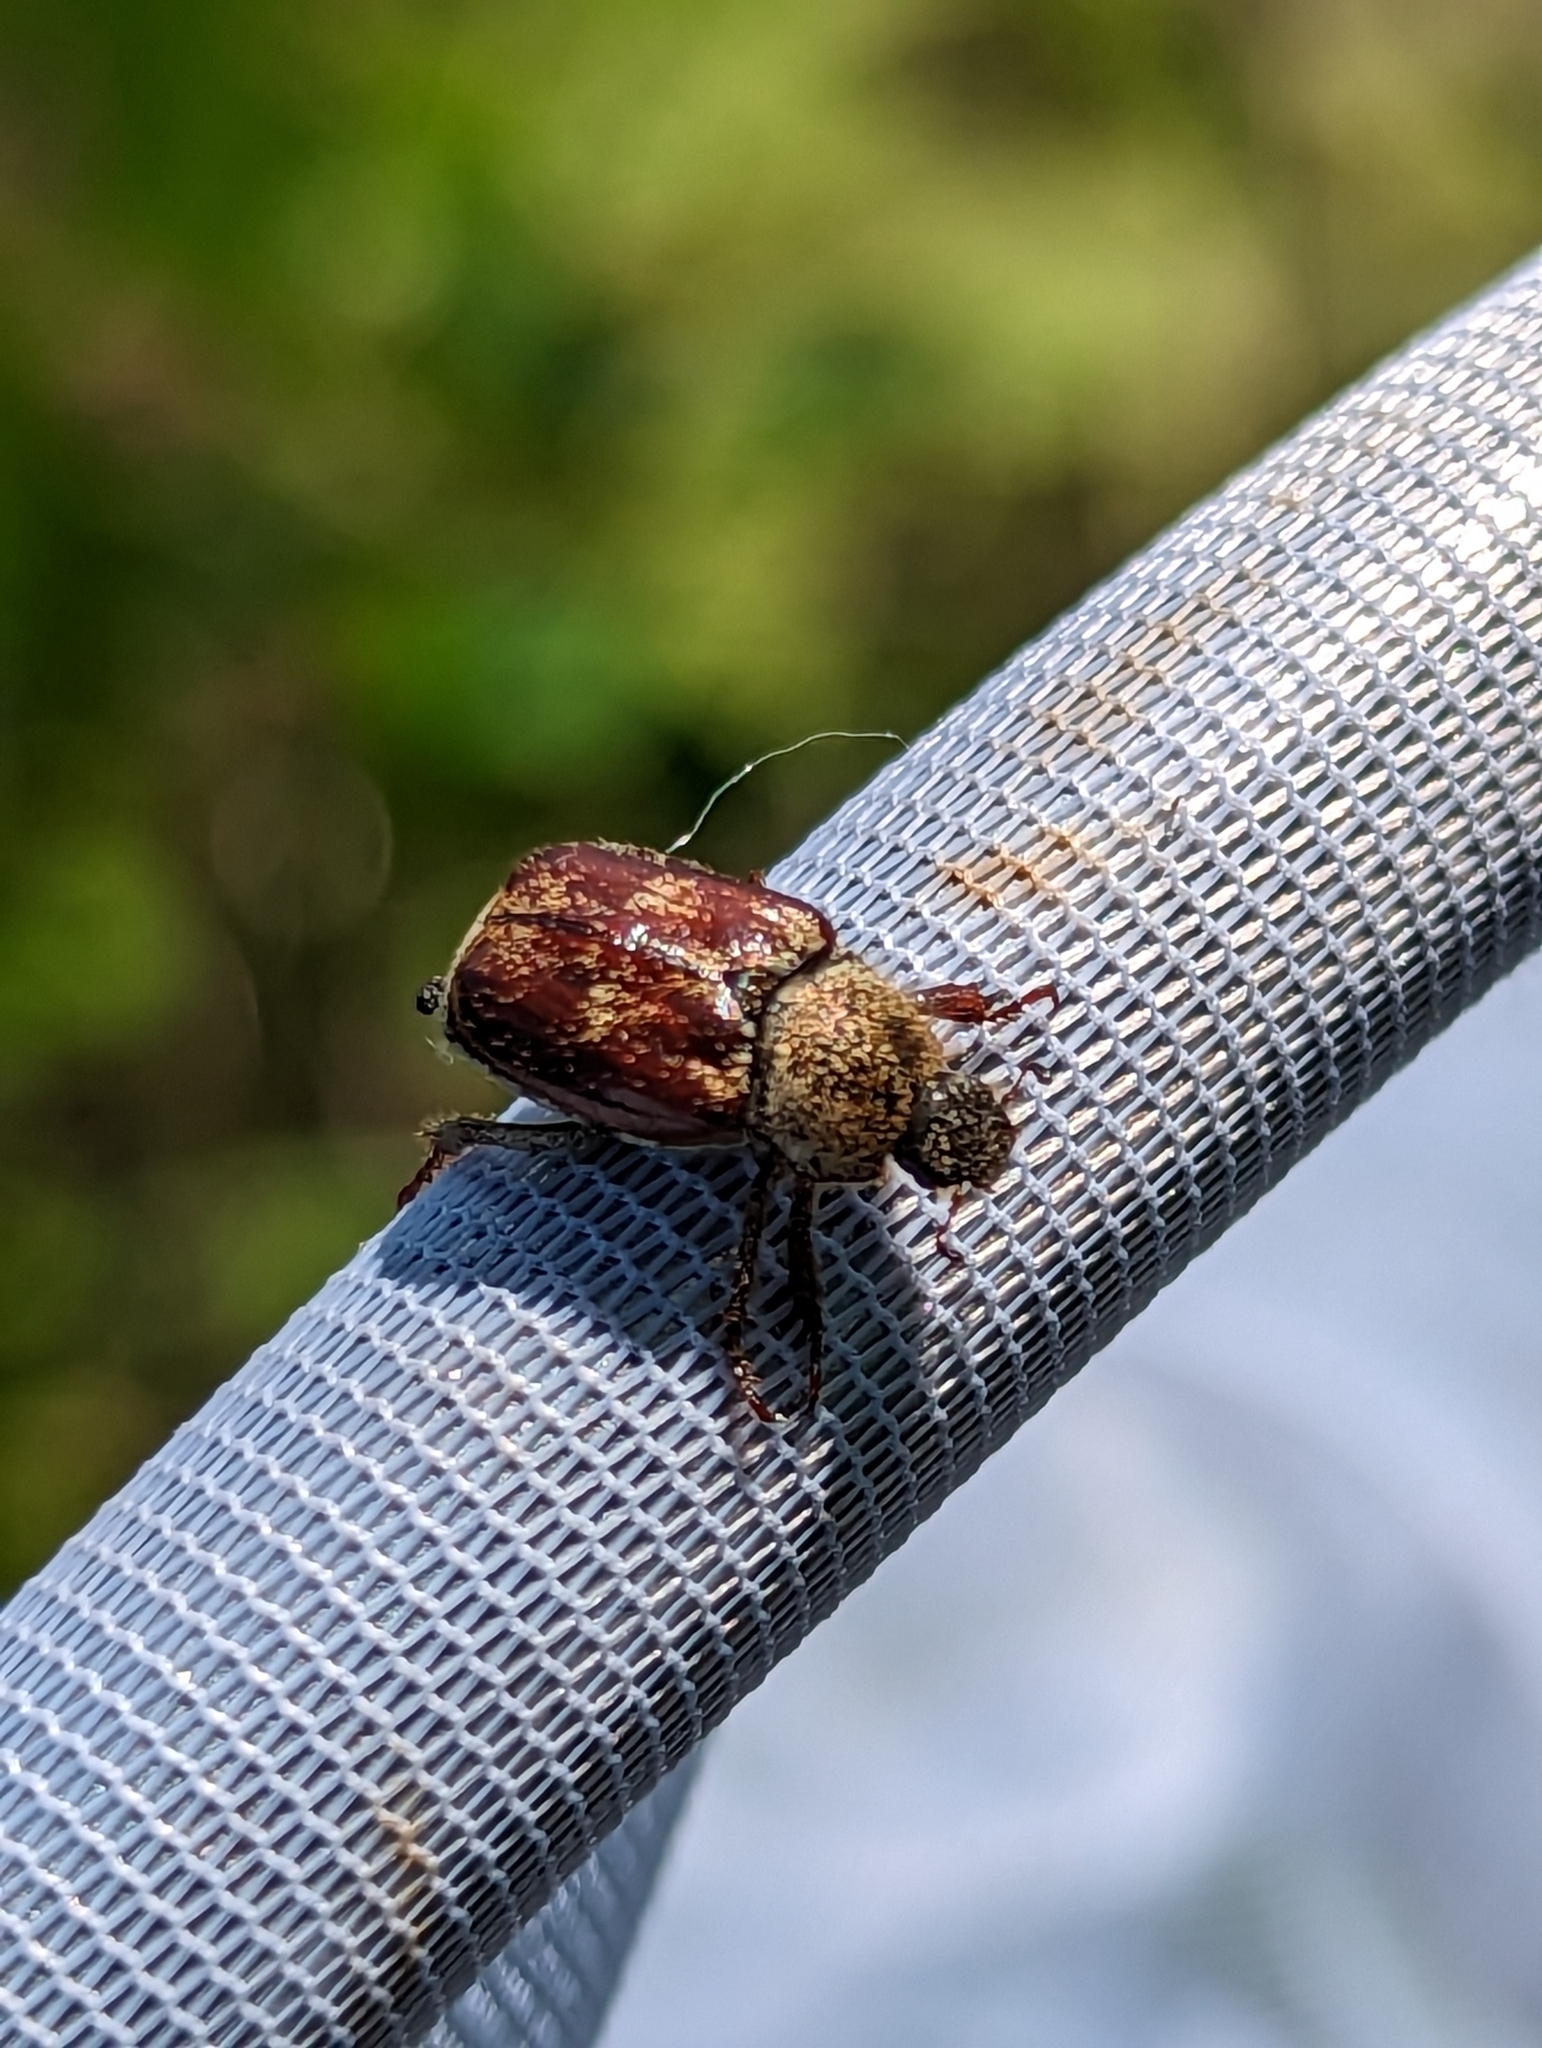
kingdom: Animalia
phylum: Arthropoda
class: Insecta
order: Coleoptera
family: Scarabaeidae
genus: Hoplia
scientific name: Hoplia trifasciata
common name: Three-lined hoplia
